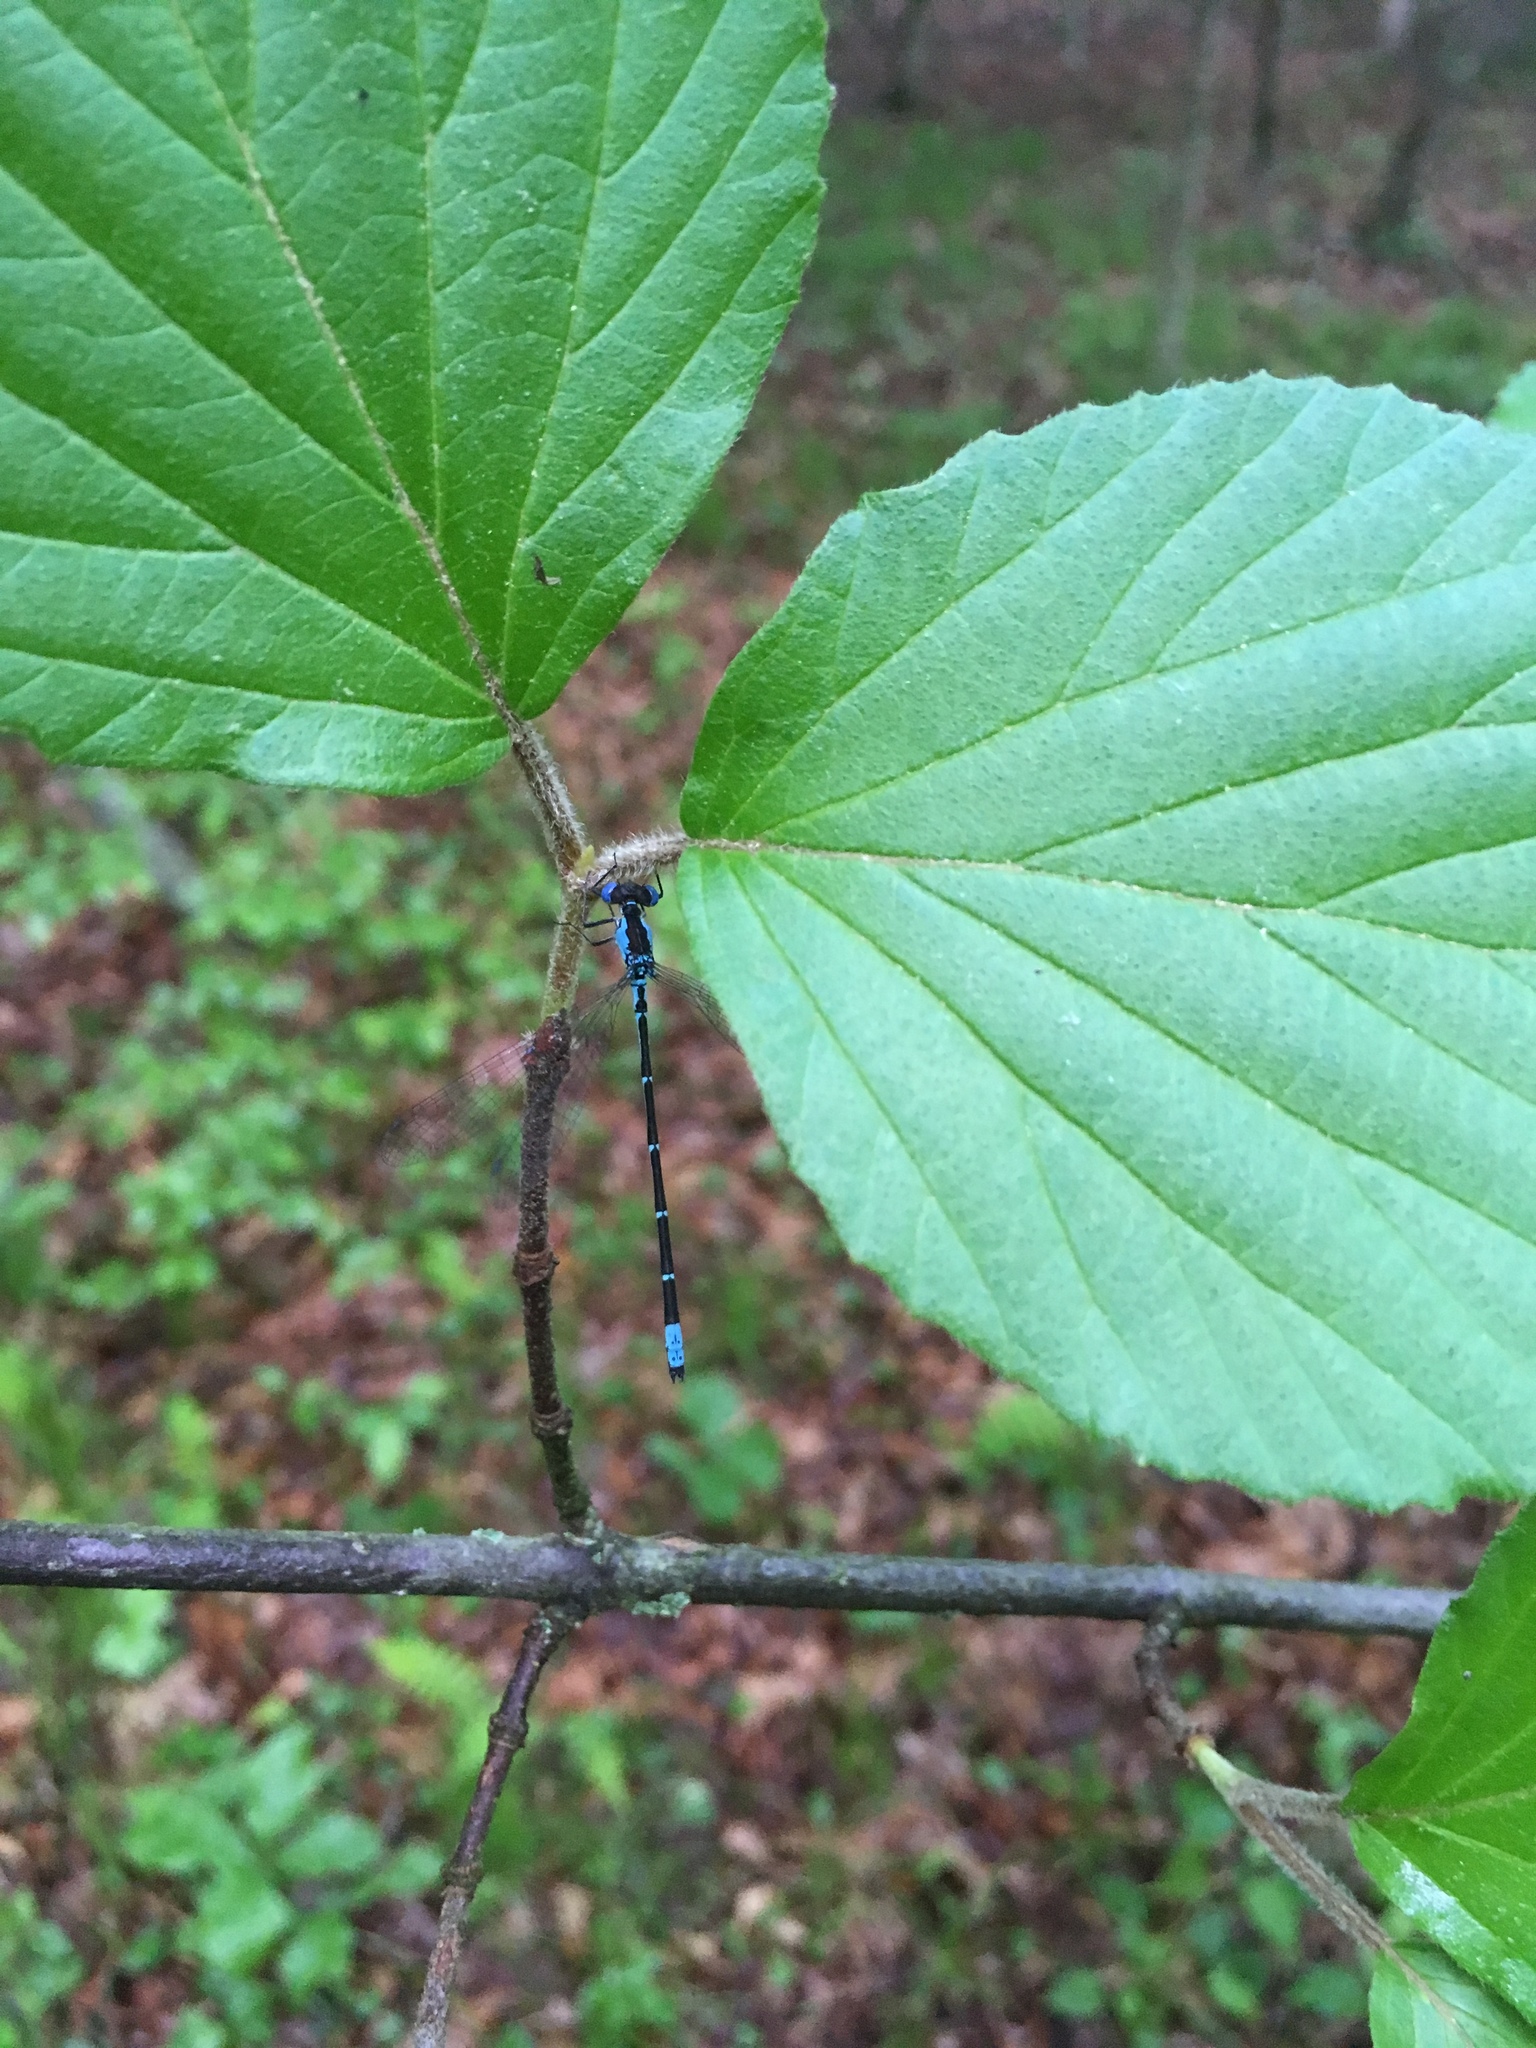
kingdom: Animalia
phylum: Arthropoda
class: Insecta
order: Odonata
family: Coenagrionidae
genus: Chromagrion
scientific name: Chromagrion conditum
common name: Aurora damsel
